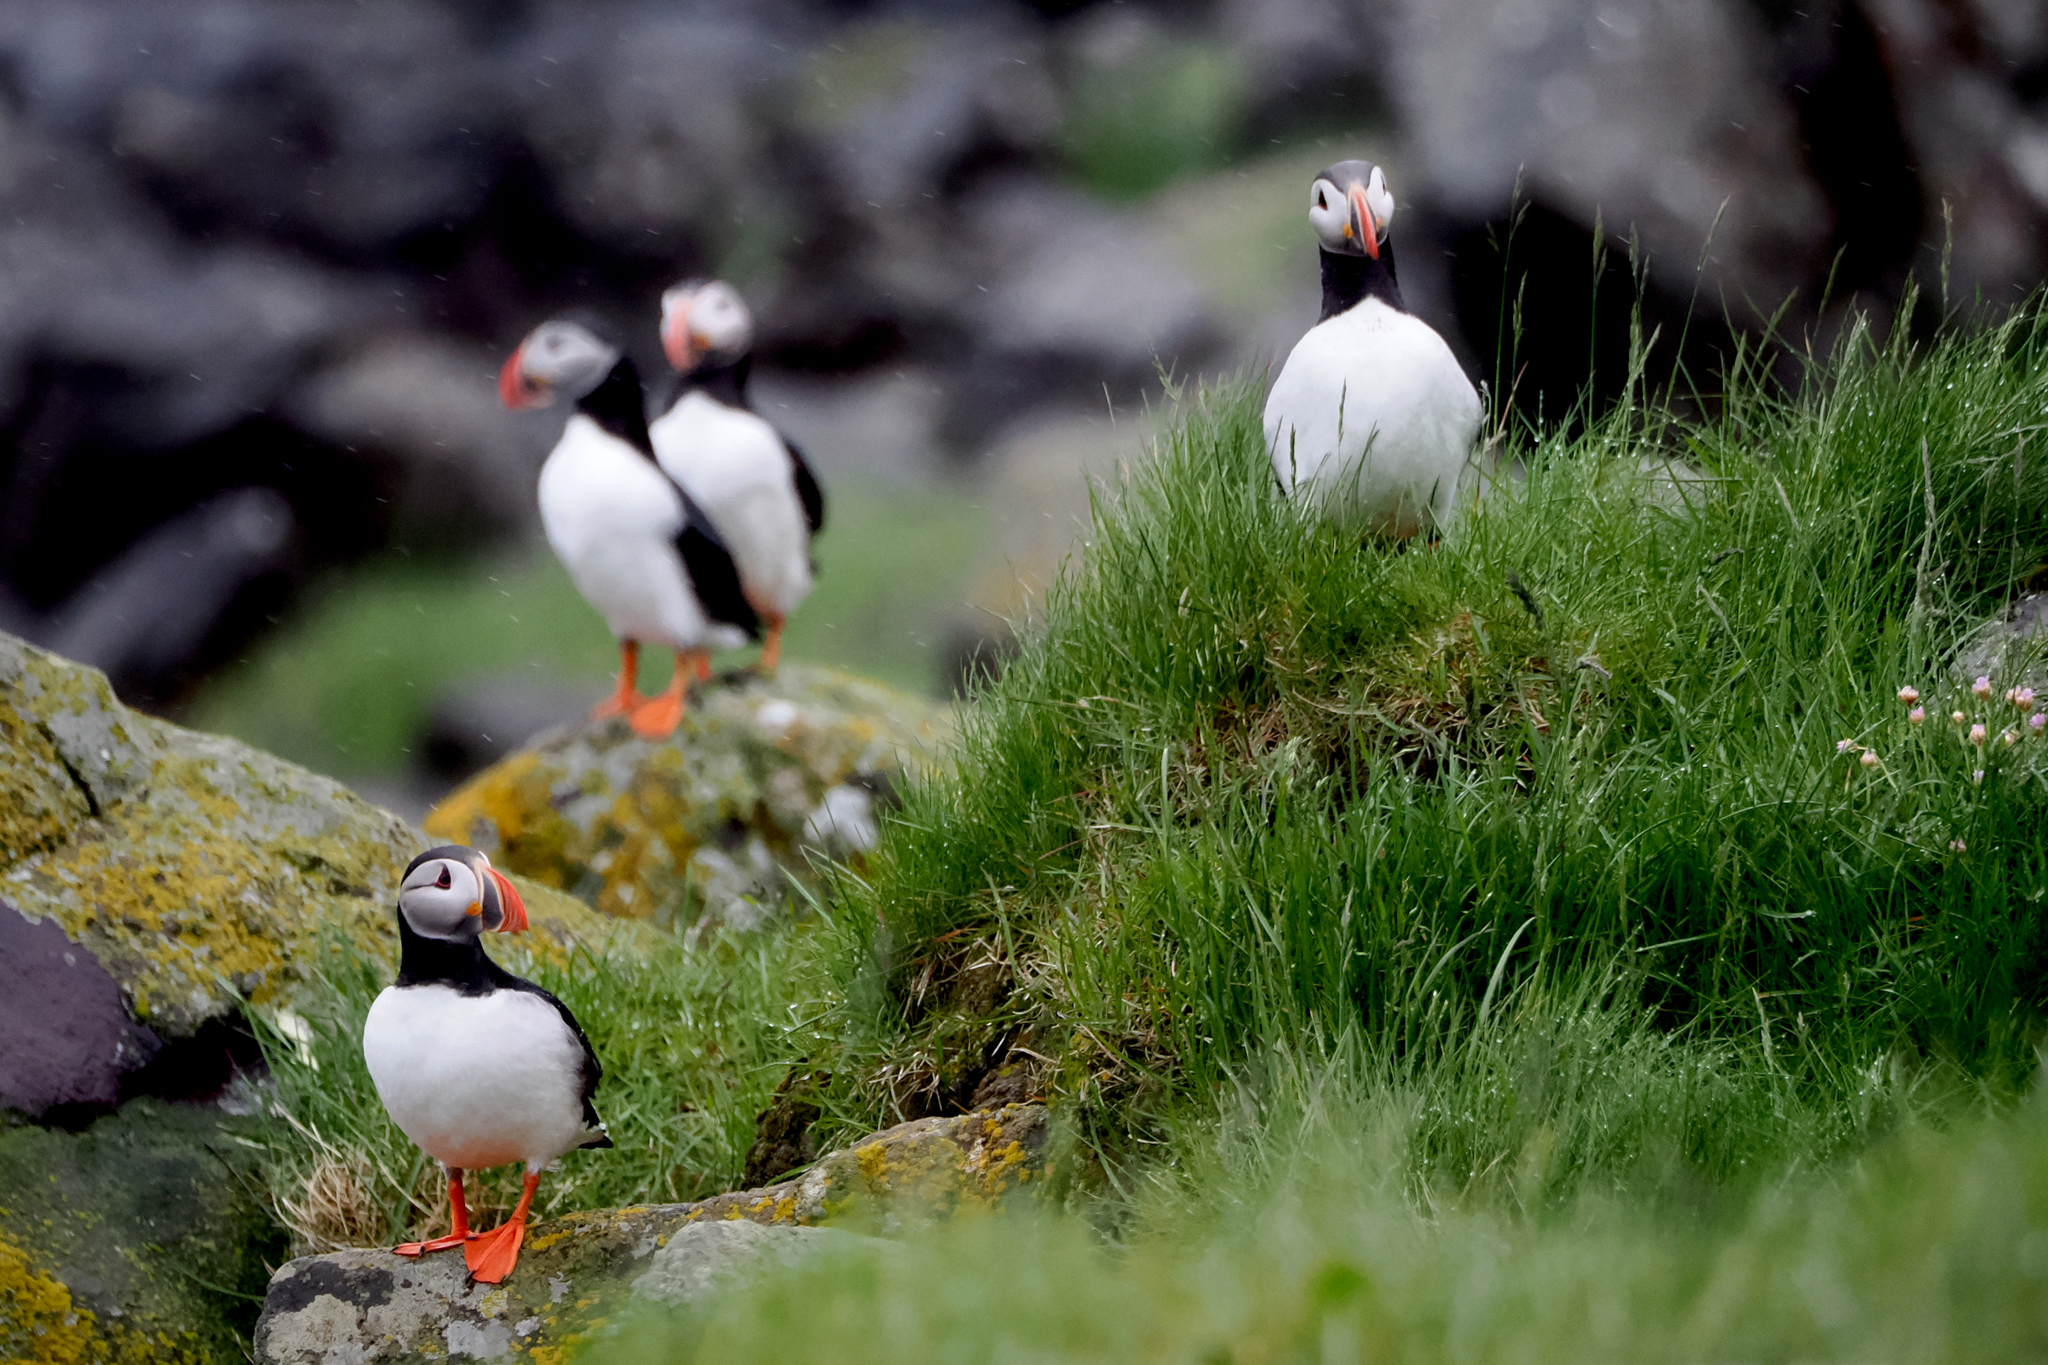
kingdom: Animalia
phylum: Chordata
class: Aves
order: Charadriiformes
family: Alcidae
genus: Fratercula
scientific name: Fratercula arctica
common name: Atlantic puffin
